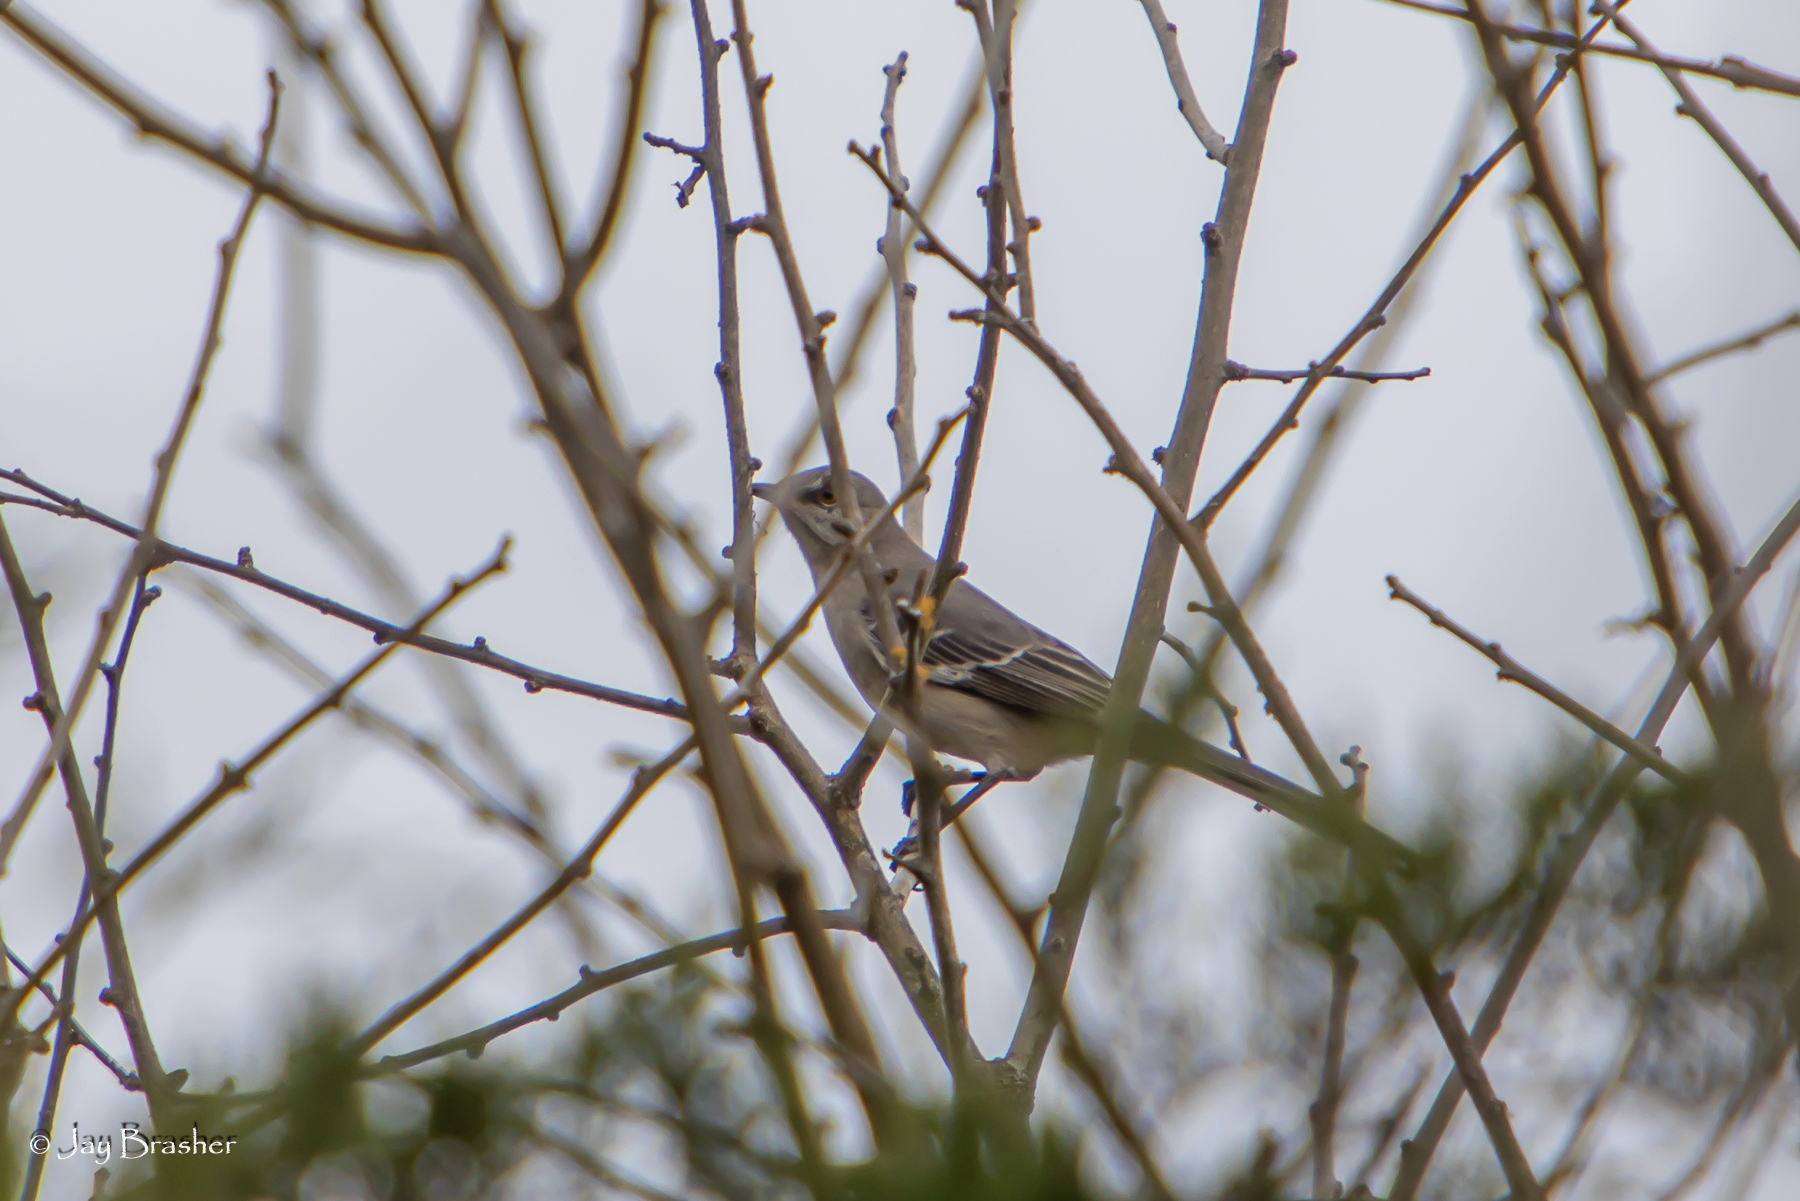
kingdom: Animalia
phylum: Chordata
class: Aves
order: Passeriformes
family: Mimidae
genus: Mimus
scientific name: Mimus polyglottos
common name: Northern mockingbird
